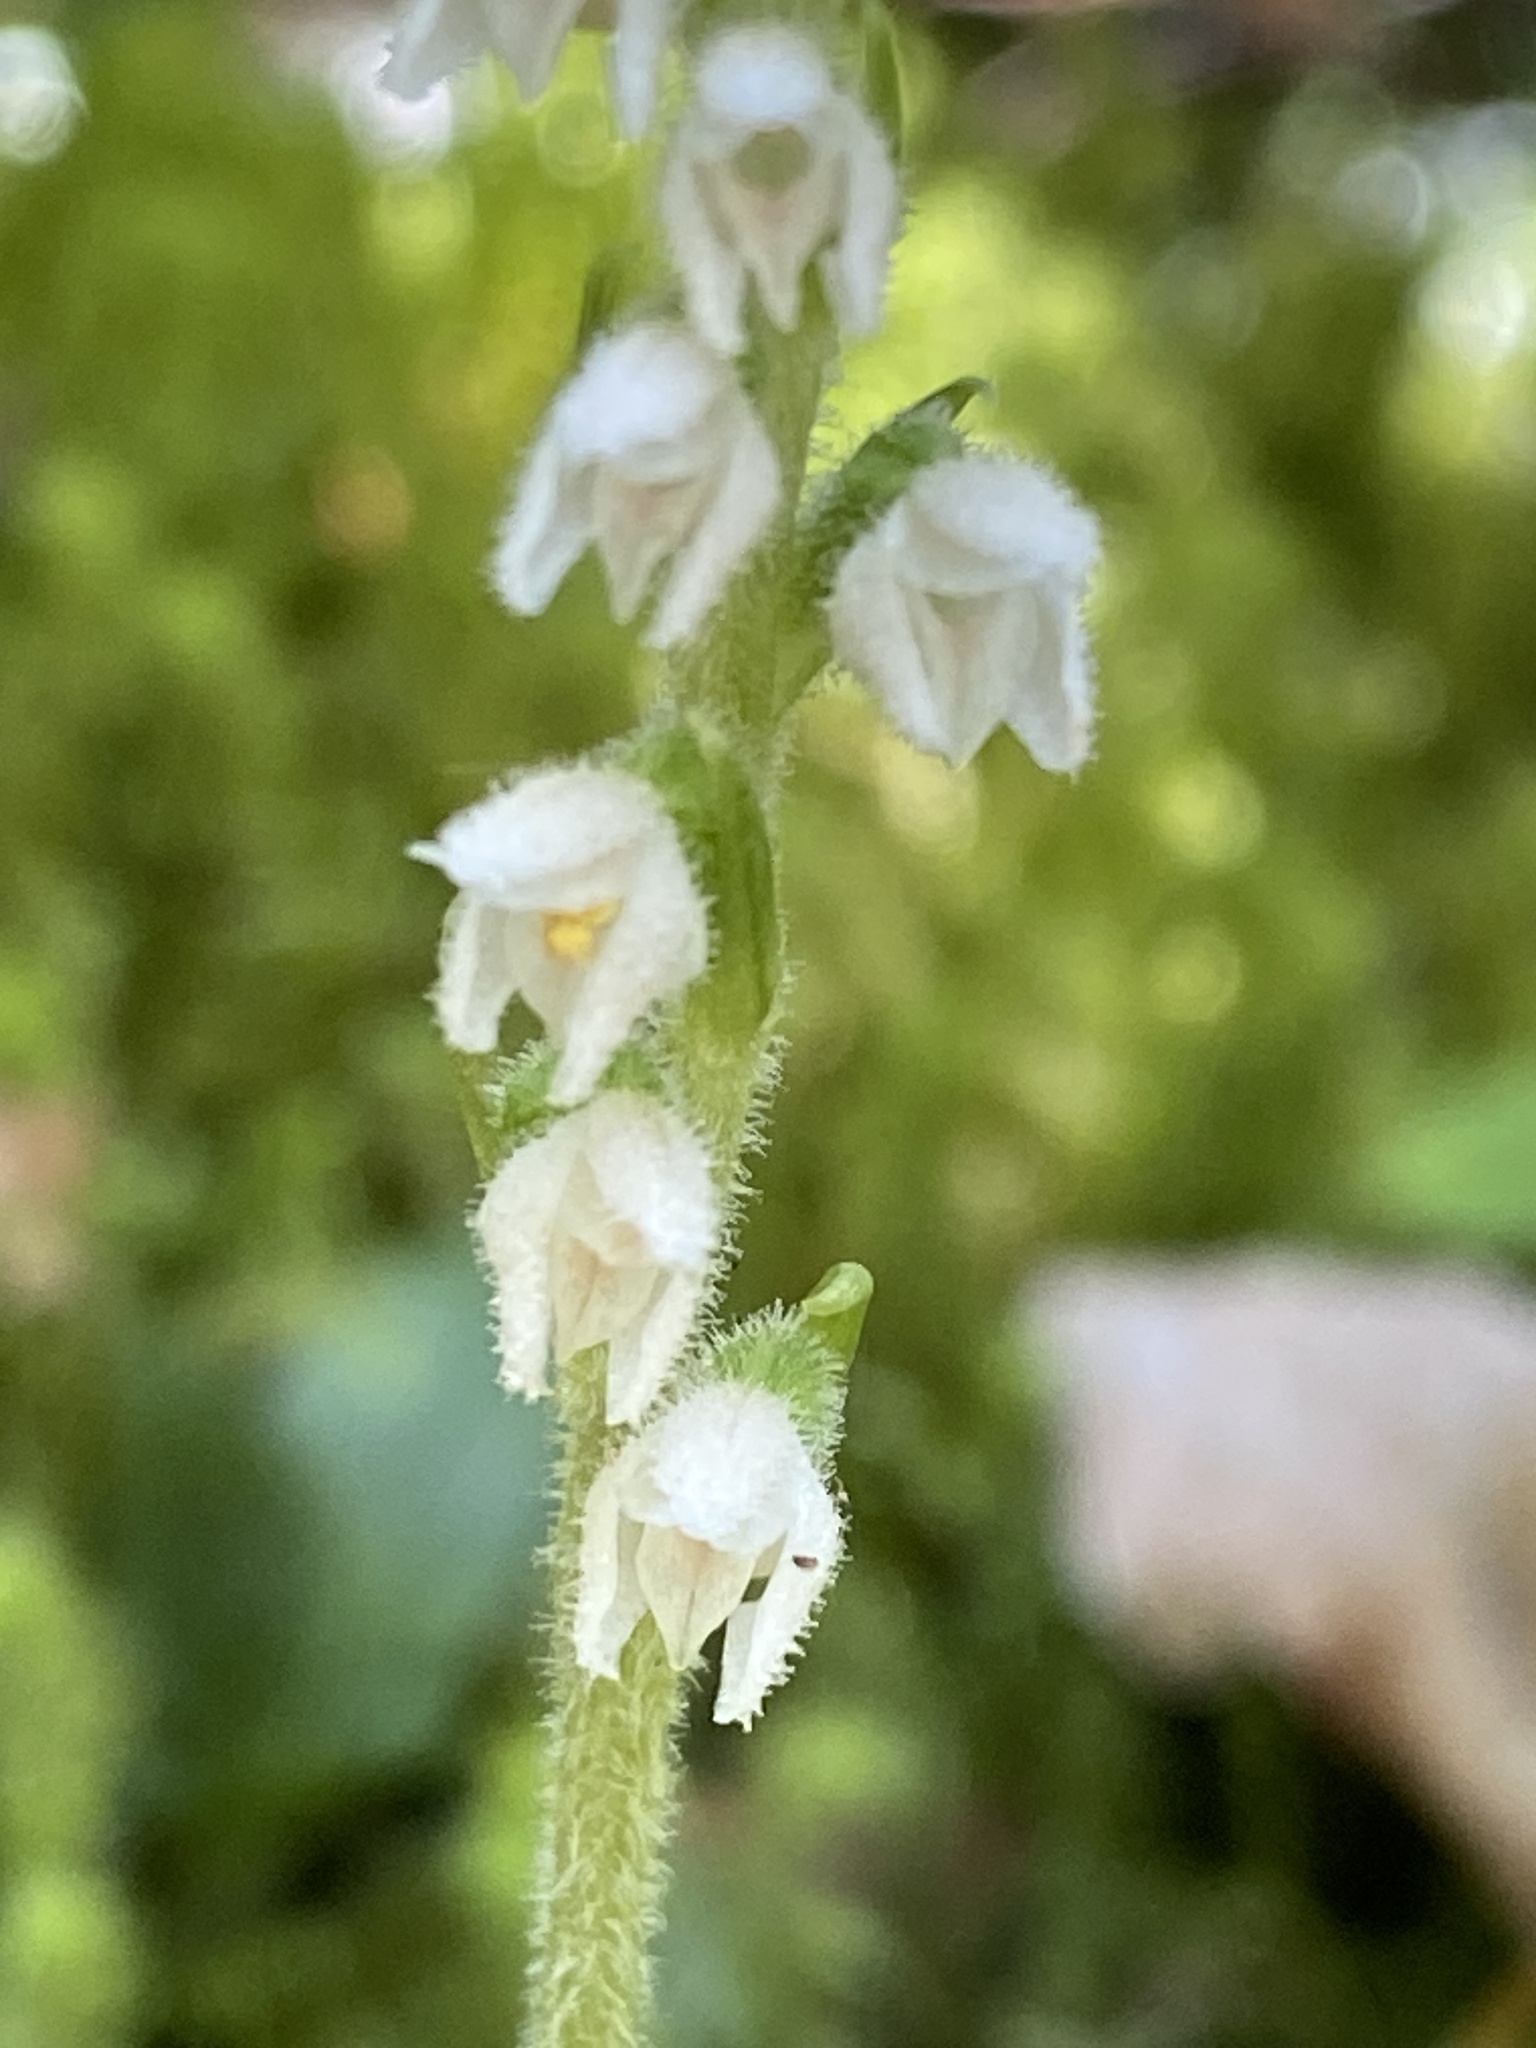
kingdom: Plantae
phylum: Tracheophyta
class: Liliopsida
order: Asparagales
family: Orchidaceae
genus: Goodyera
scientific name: Goodyera repens
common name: Creeping lady's-tresses
